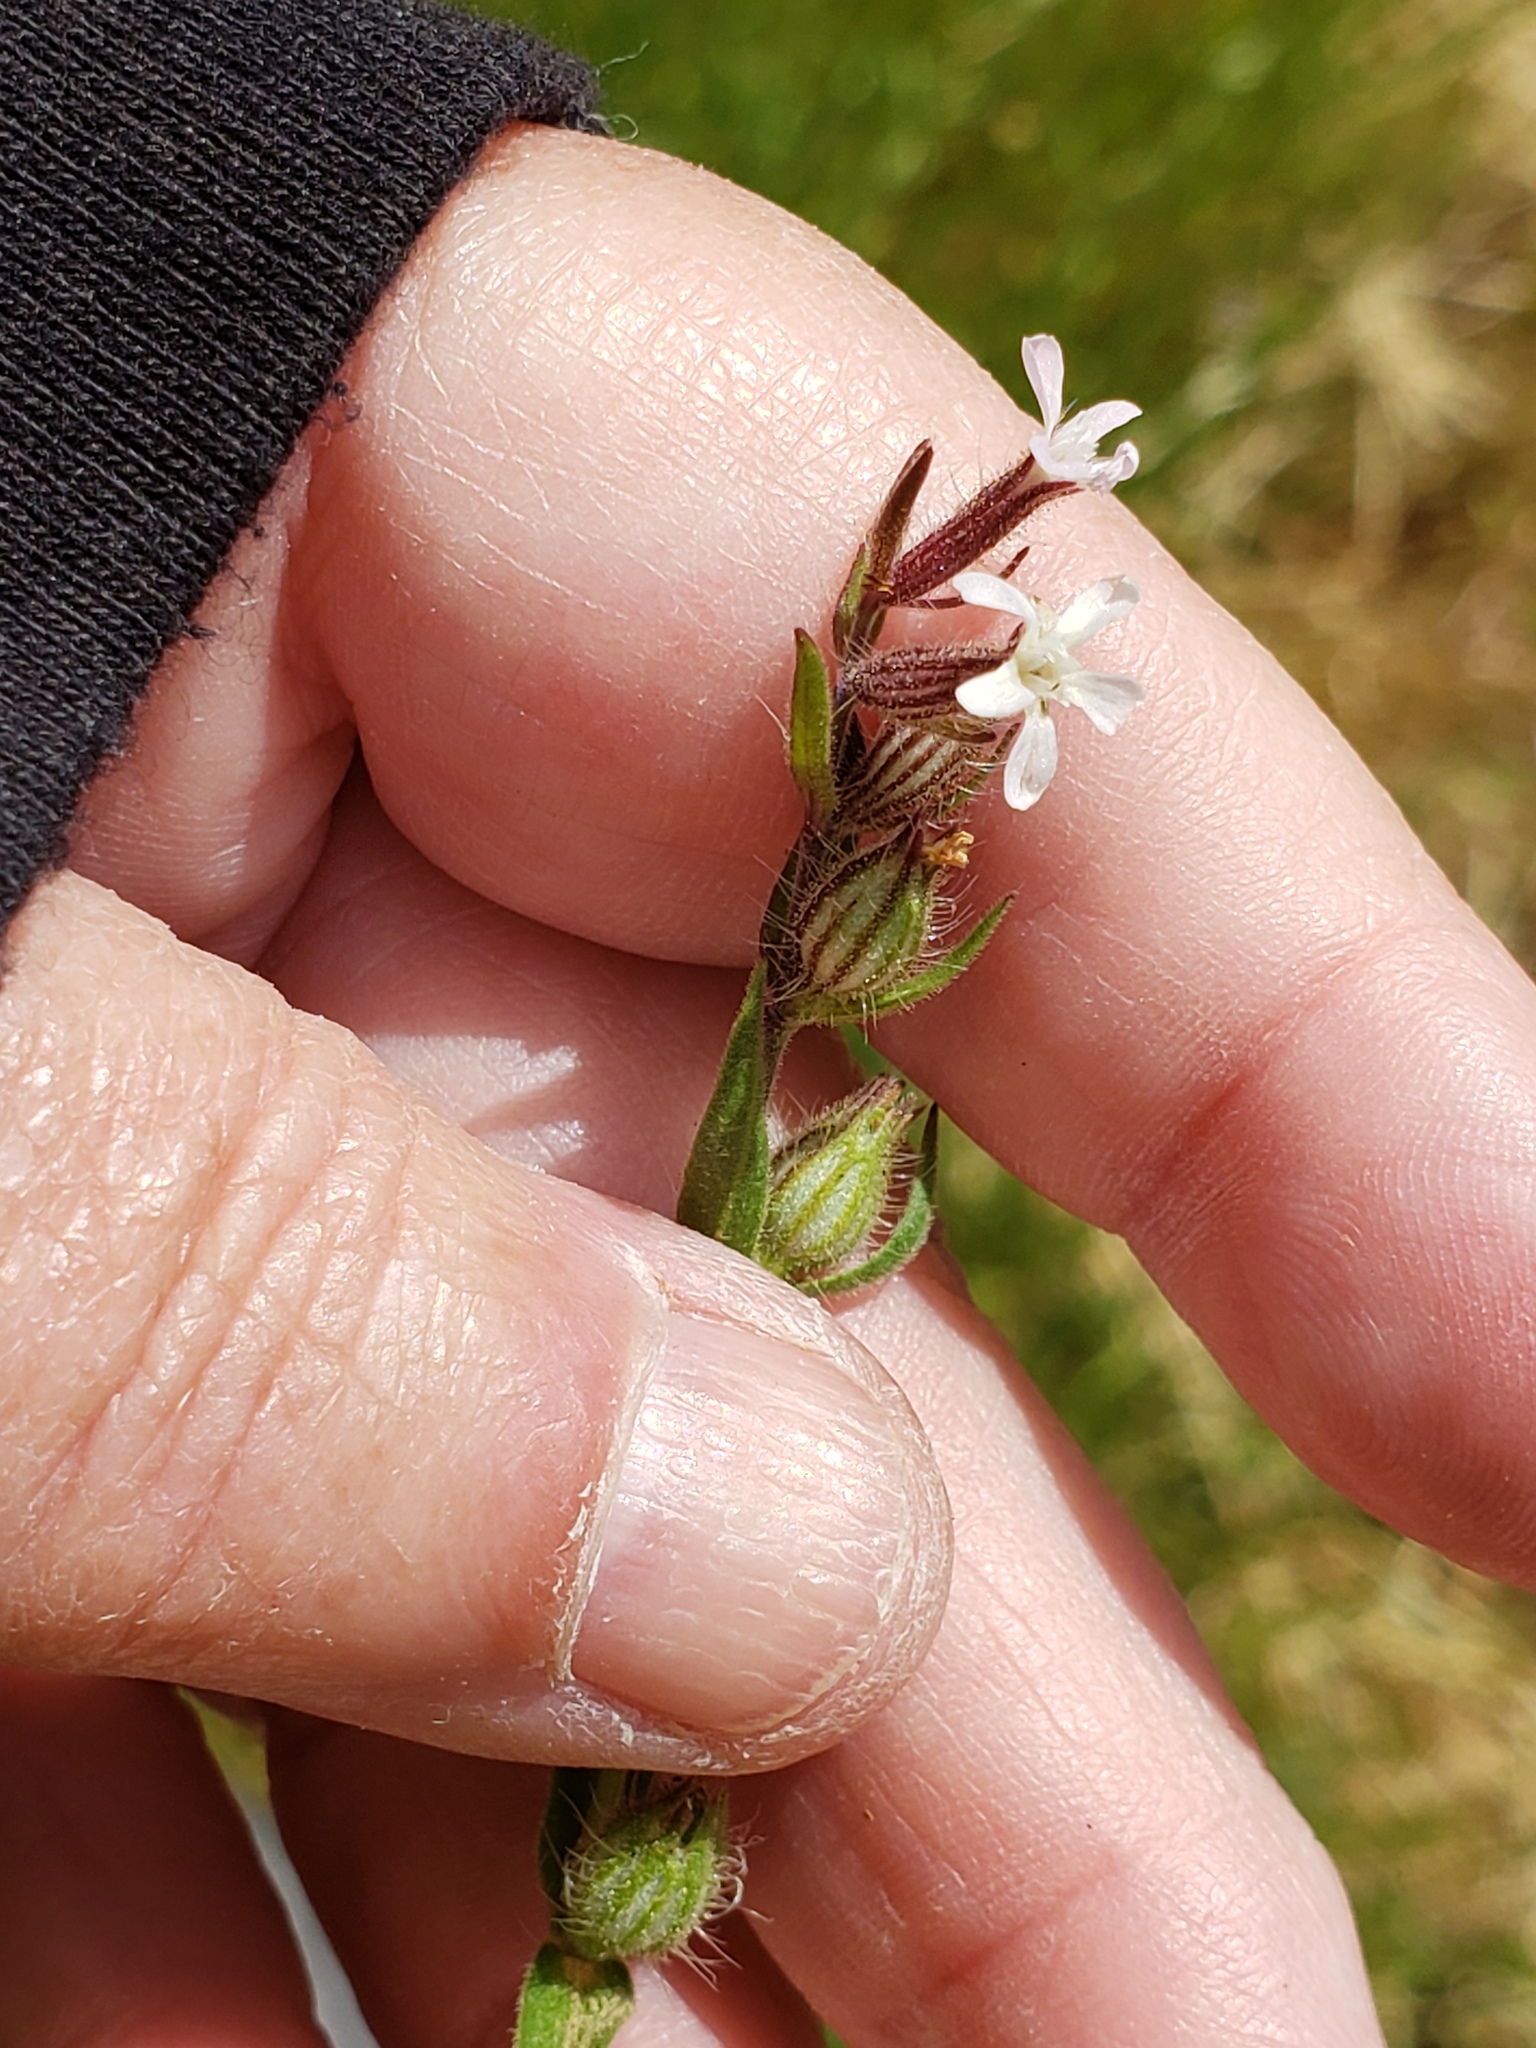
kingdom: Plantae
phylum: Tracheophyta
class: Magnoliopsida
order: Caryophyllales
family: Caryophyllaceae
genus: Silene
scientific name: Silene gallica
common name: Small-flowered catchfly
